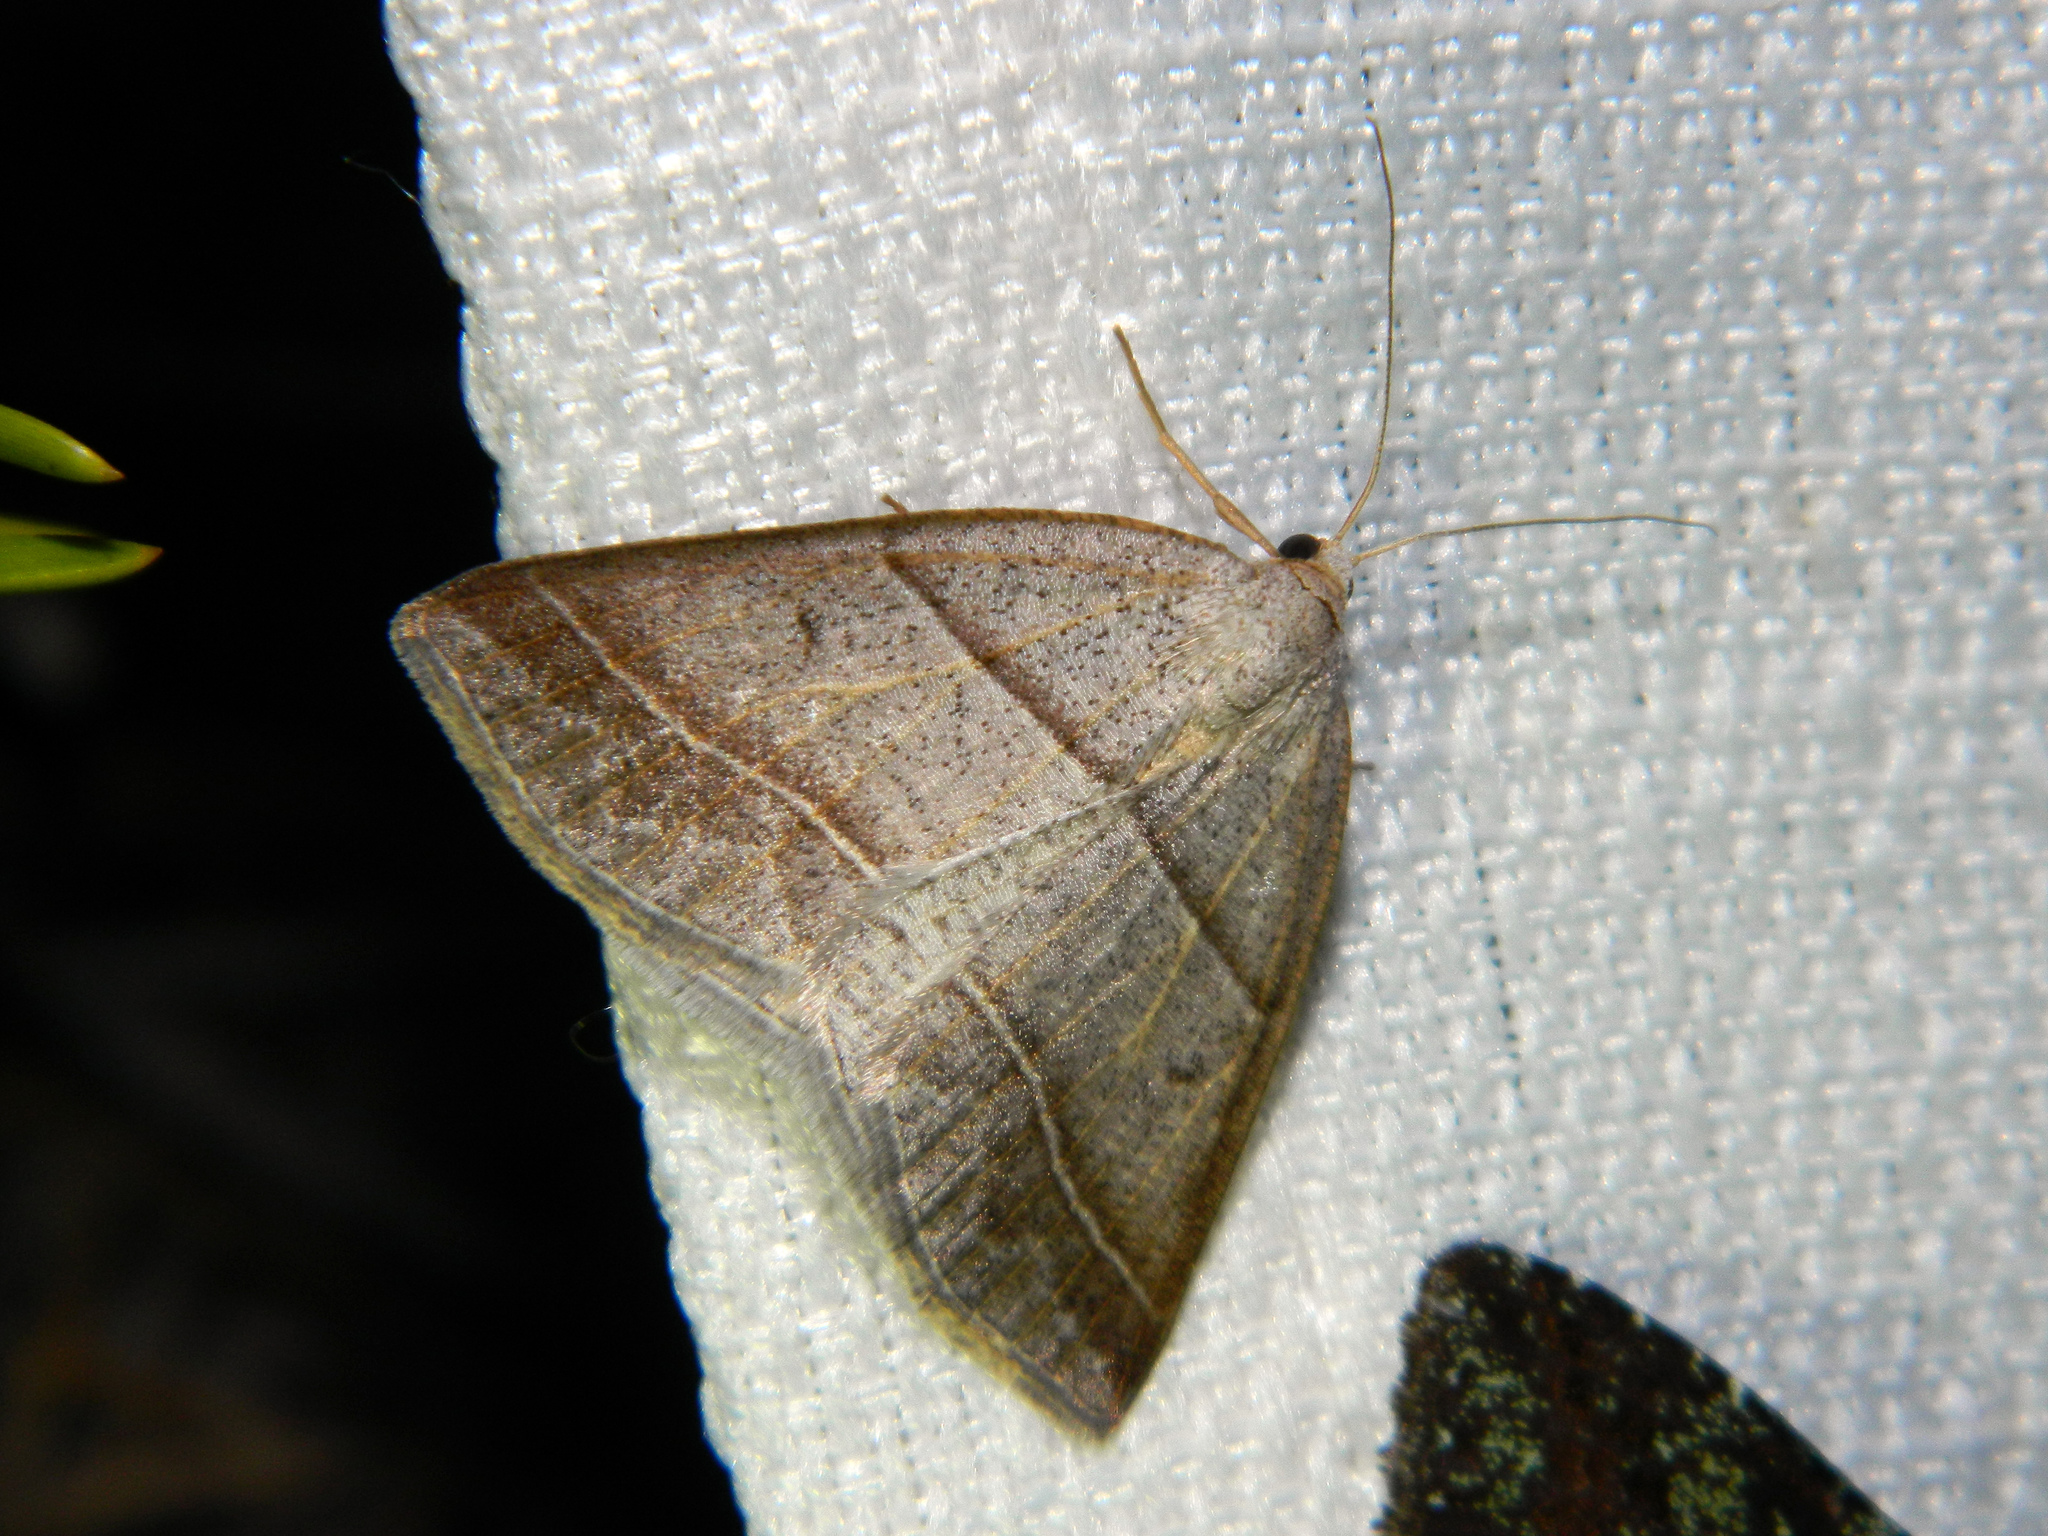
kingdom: Animalia
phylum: Arthropoda
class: Insecta
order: Lepidoptera
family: Pterophoridae
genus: Pterophorus
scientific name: Pterophorus Petrophora subaequaria
